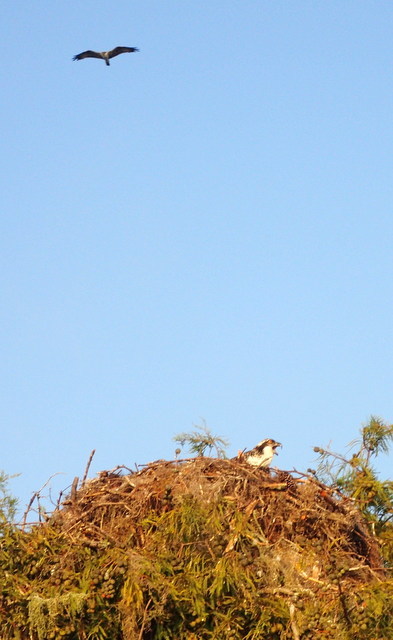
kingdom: Animalia
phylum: Chordata
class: Aves
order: Accipitriformes
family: Pandionidae
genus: Pandion
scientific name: Pandion haliaetus
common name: Osprey
